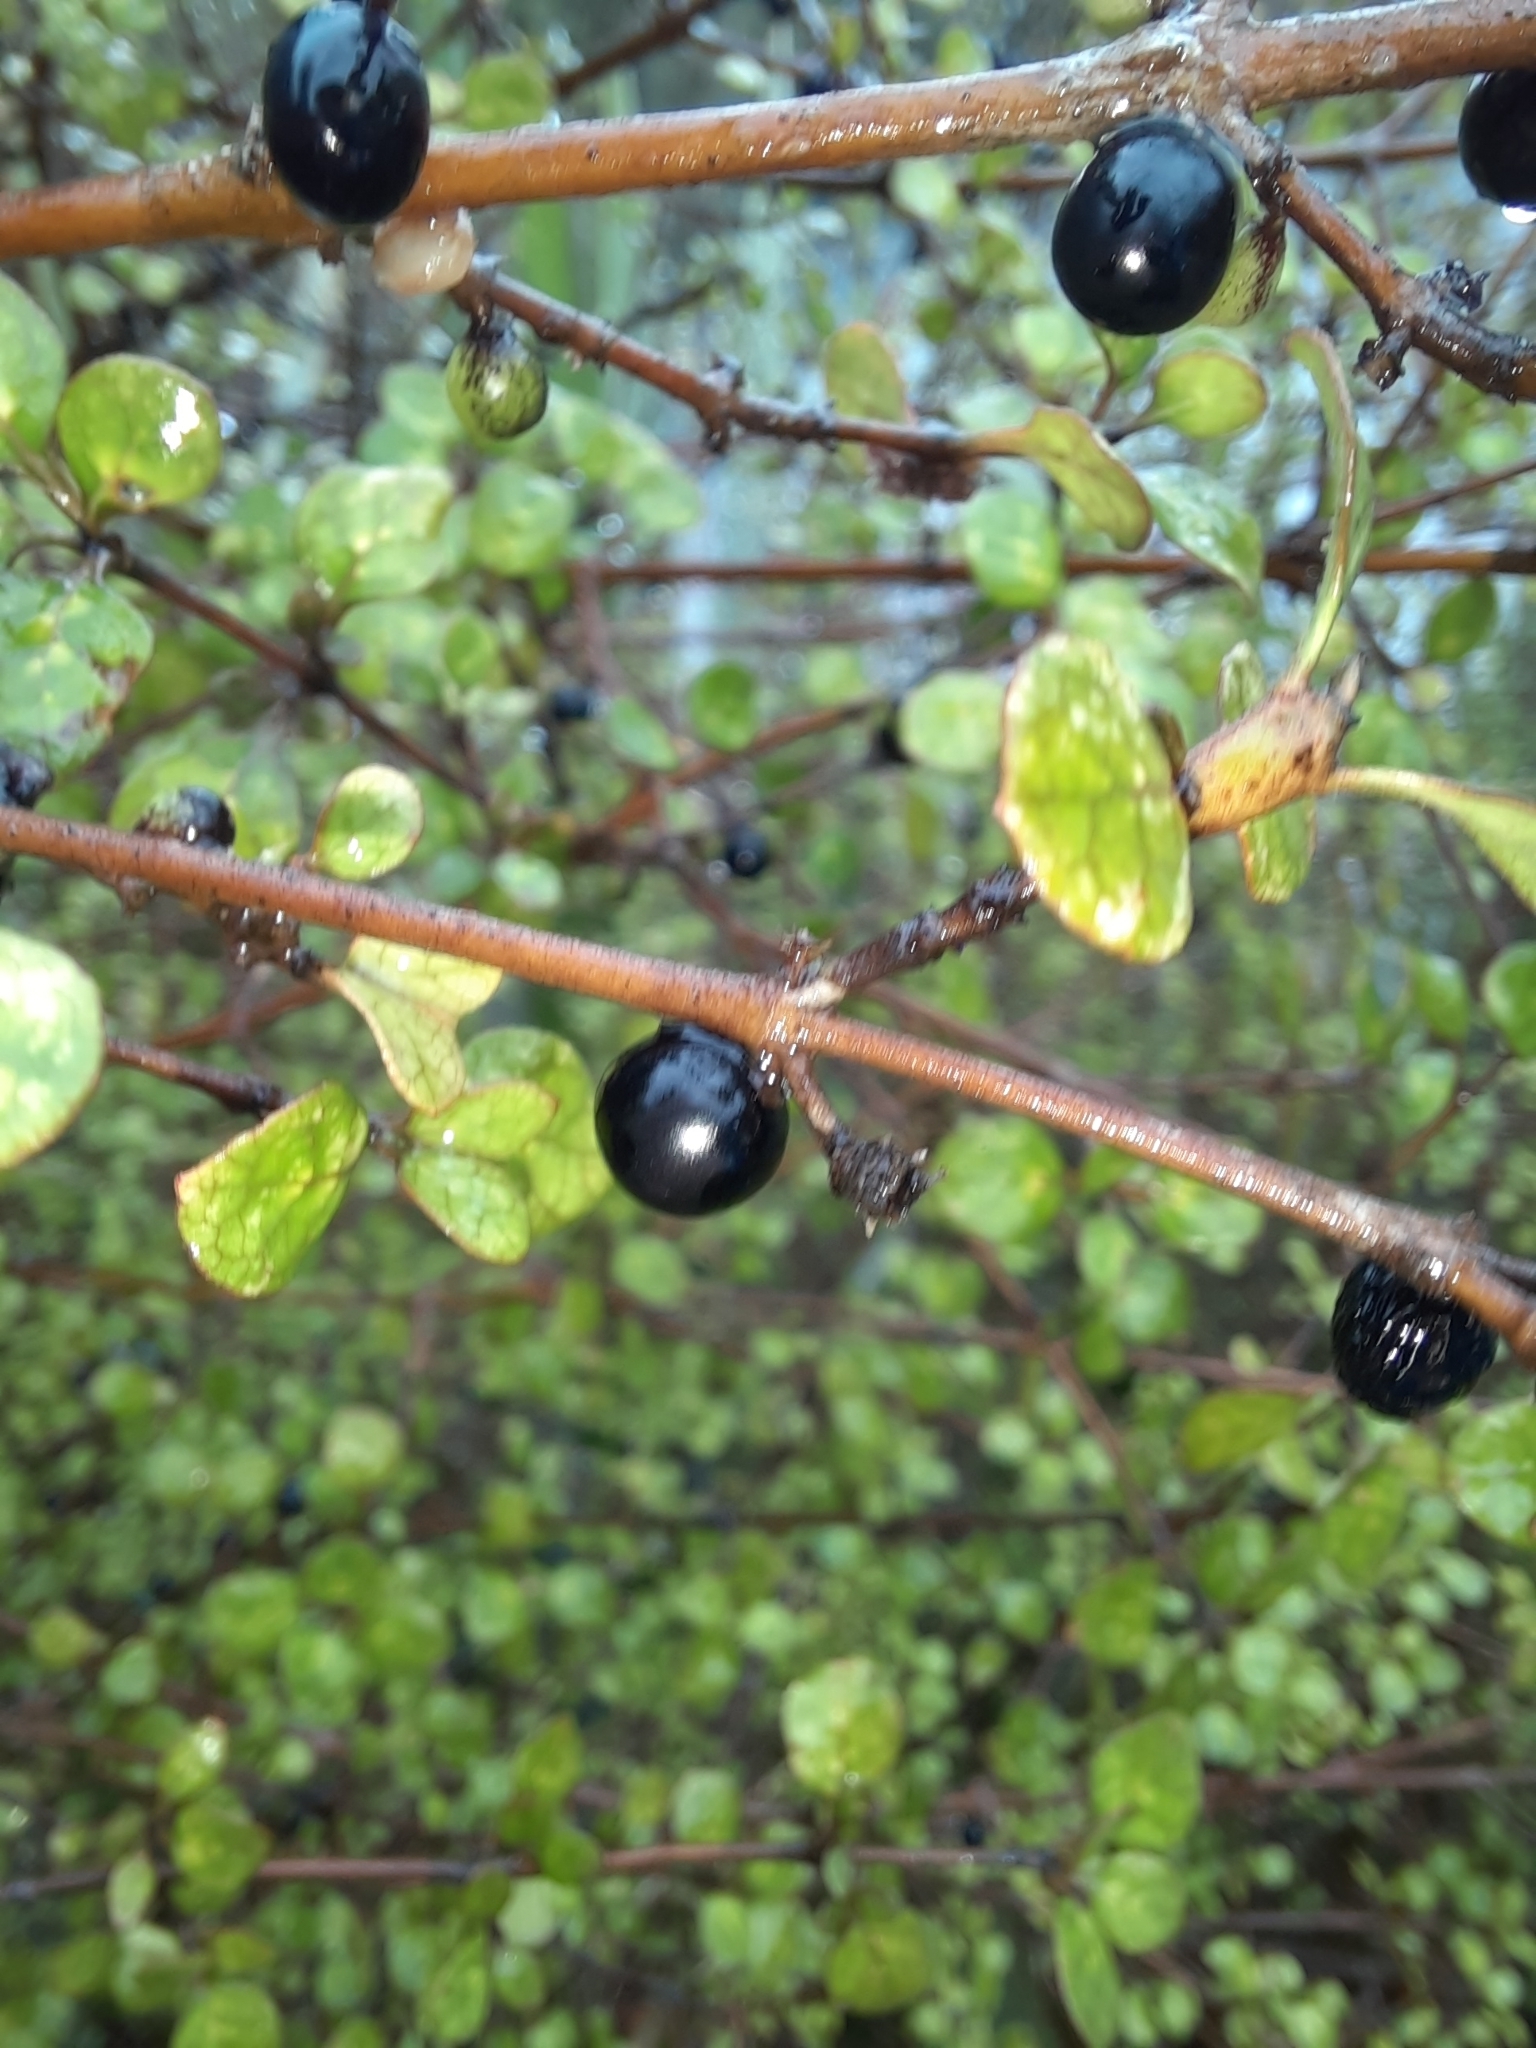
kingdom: Plantae
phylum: Tracheophyta
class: Magnoliopsida
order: Gentianales
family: Rubiaceae
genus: Coprosma
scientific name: Coprosma tenuicaulis
